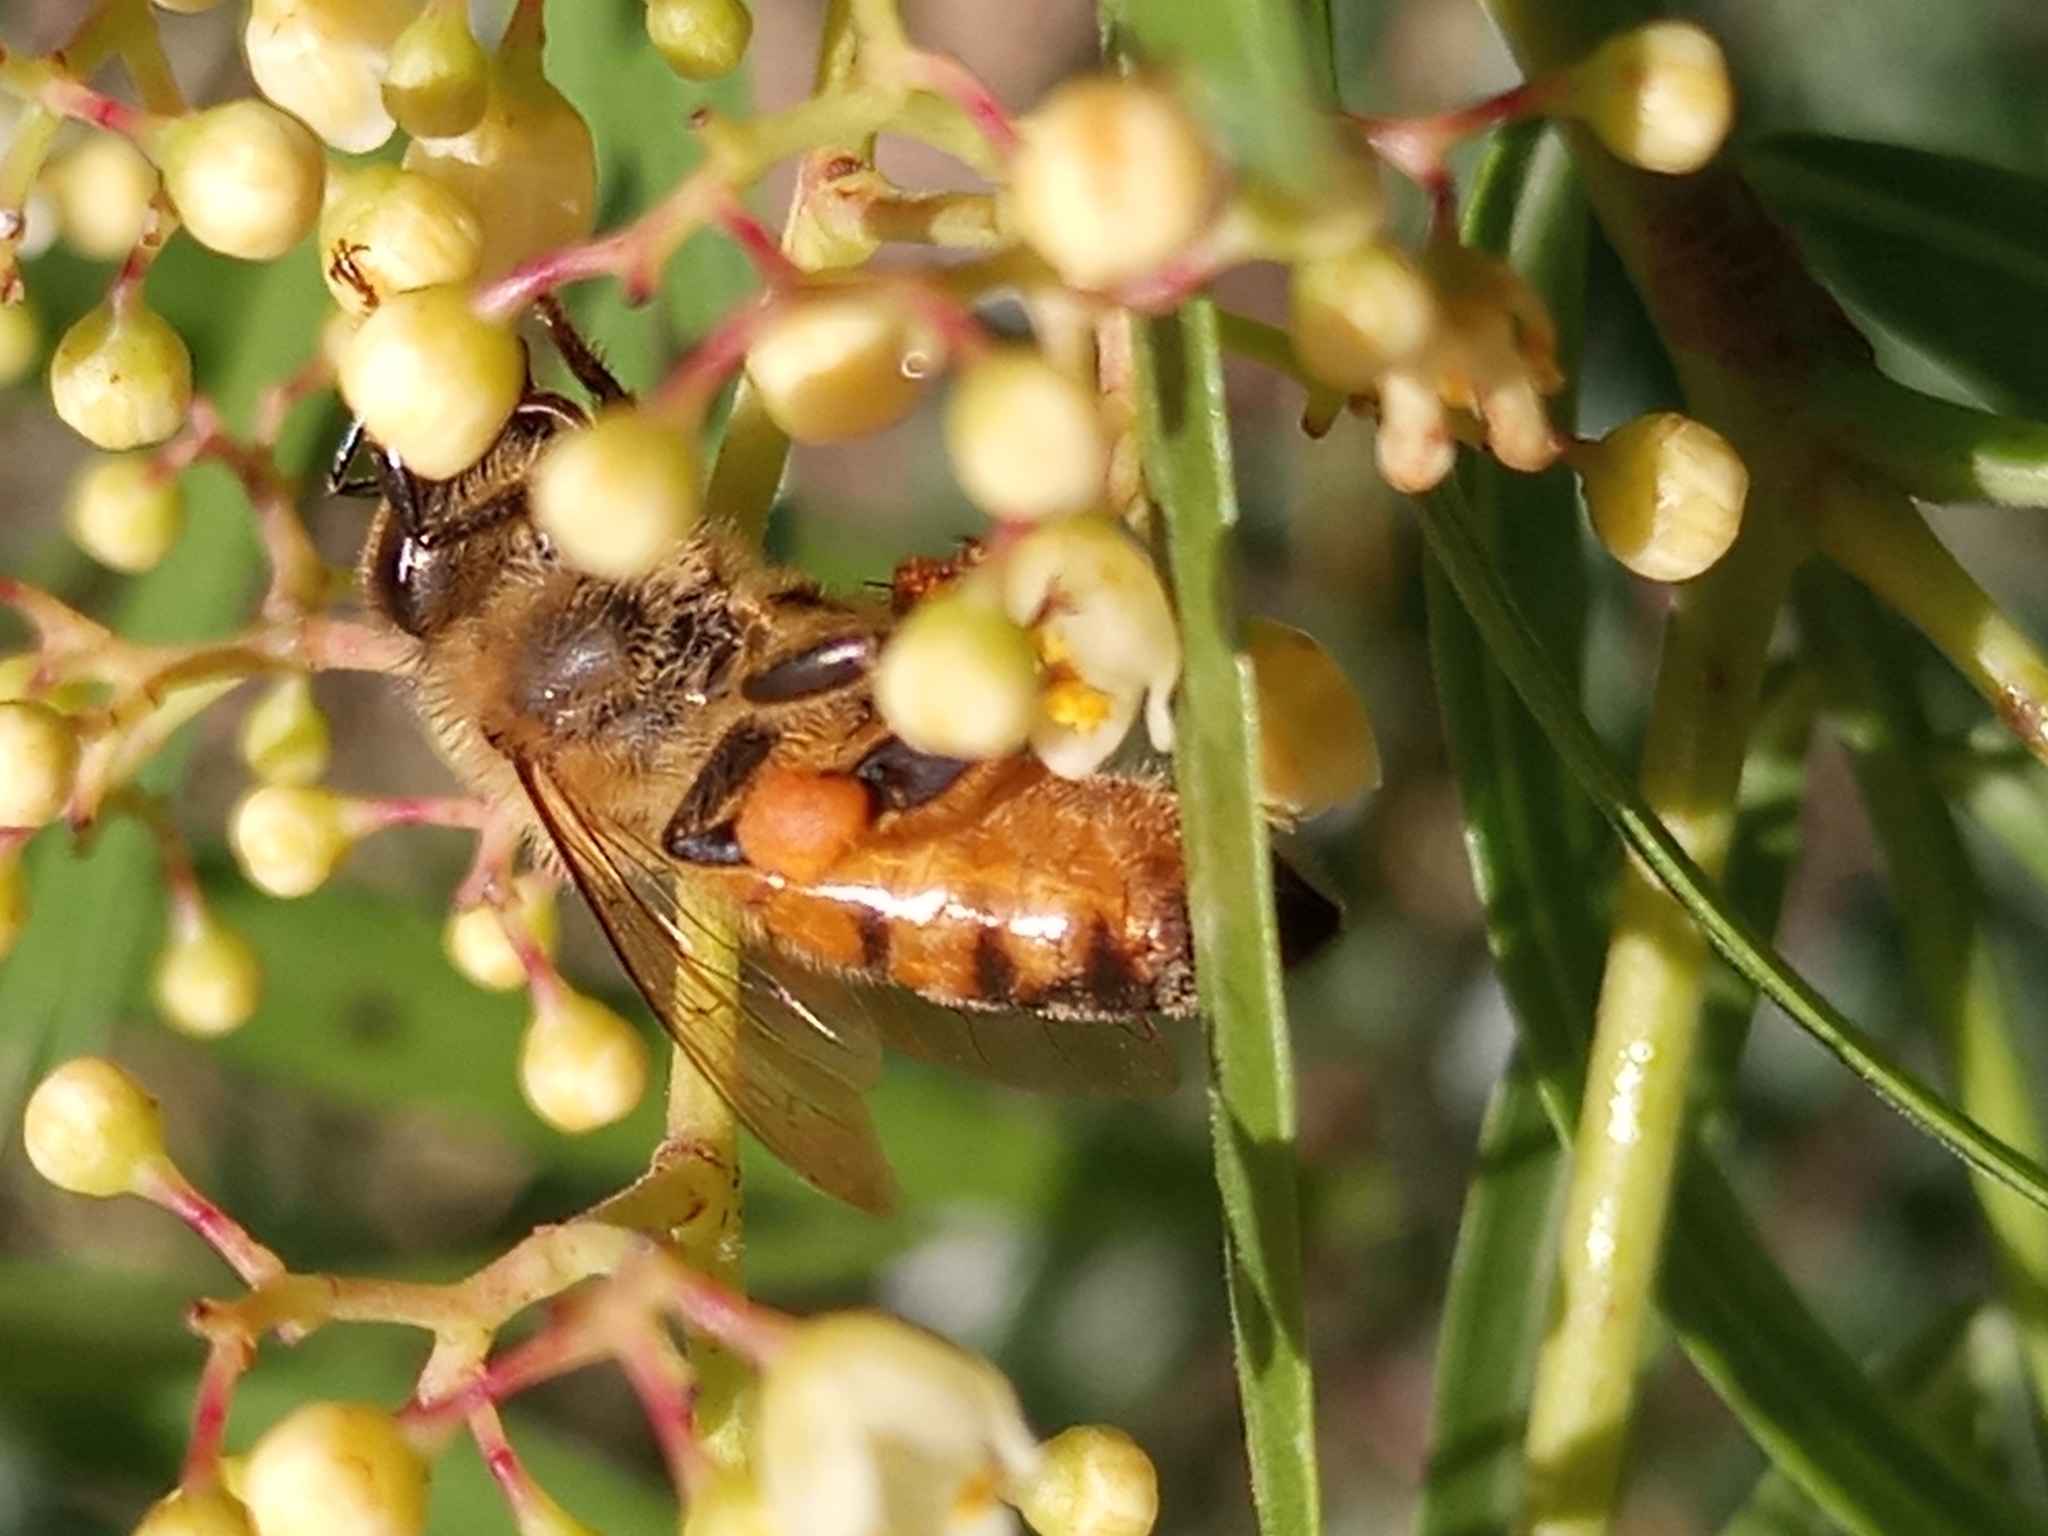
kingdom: Animalia
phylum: Arthropoda
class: Insecta
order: Hymenoptera
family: Apidae
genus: Apis
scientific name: Apis mellifera
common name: Honey bee
